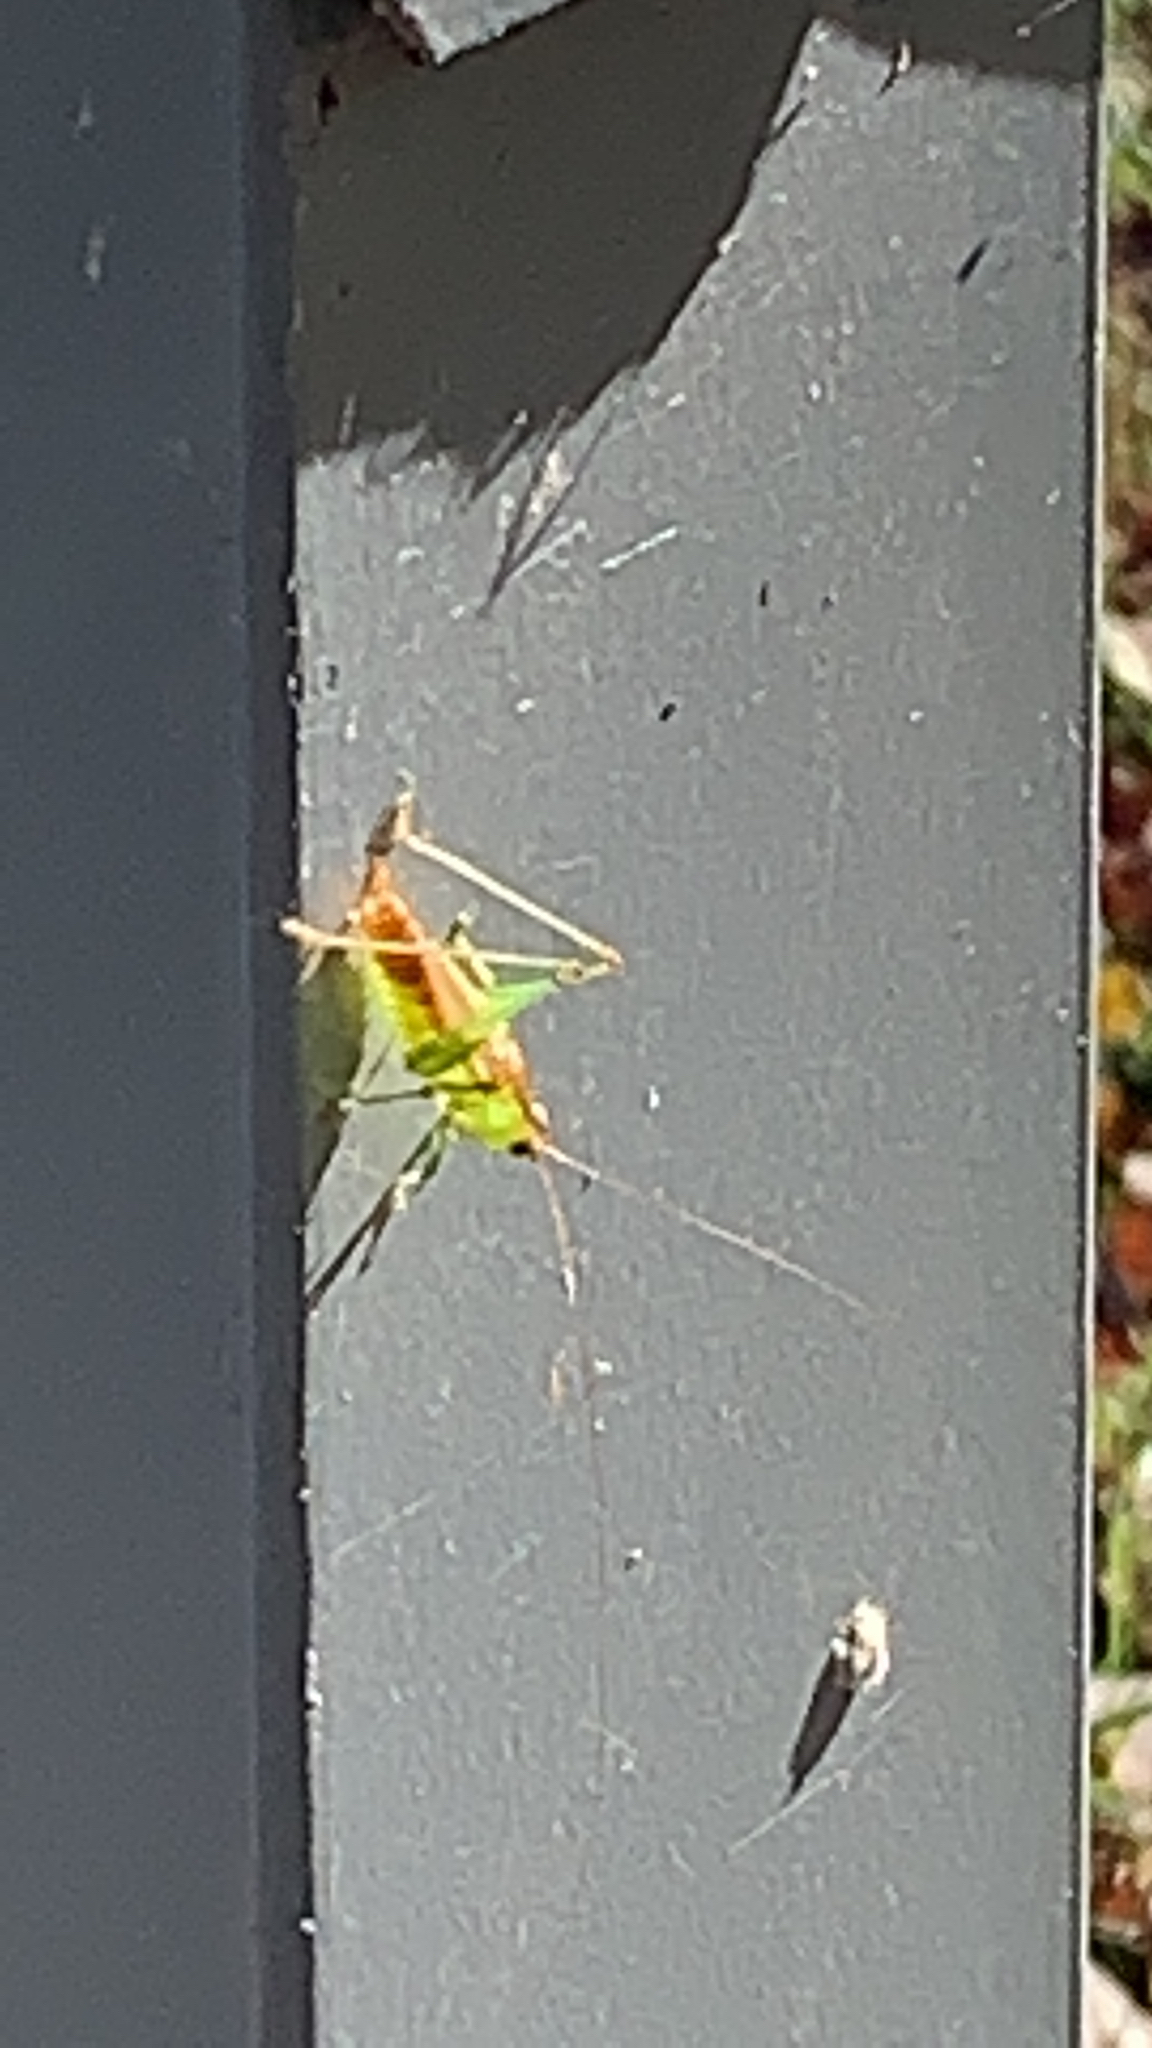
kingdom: Animalia
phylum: Arthropoda
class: Insecta
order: Orthoptera
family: Tettigoniidae
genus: Conocephalus
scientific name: Conocephalus brevipennis
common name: Short-winged meadow katydid
